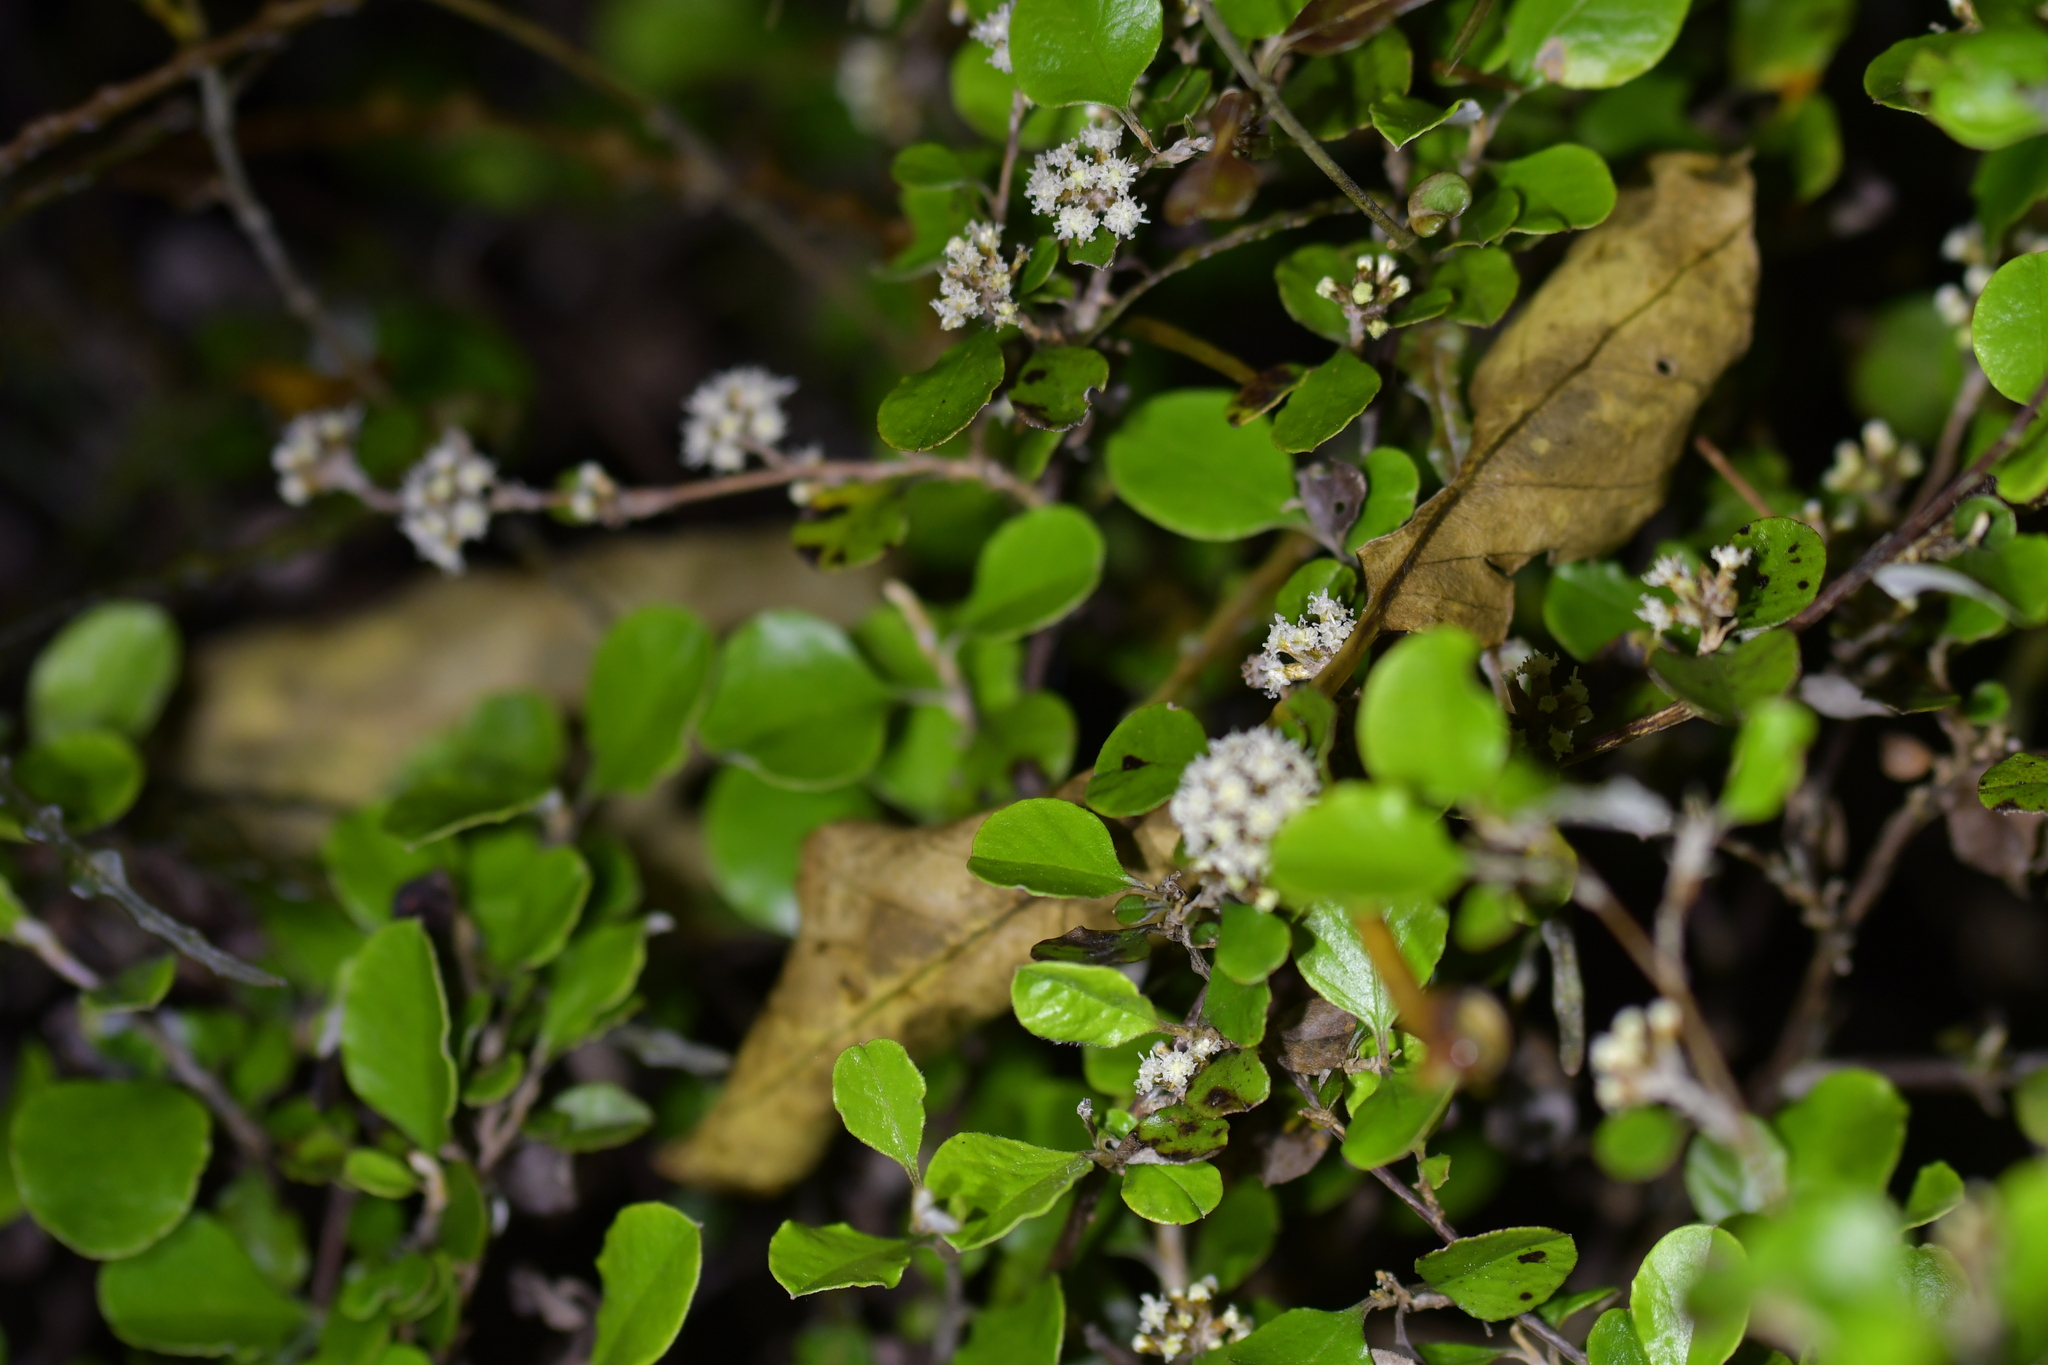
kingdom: Plantae
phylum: Tracheophyta
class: Magnoliopsida
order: Asterales
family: Asteraceae
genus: Ozothamnus
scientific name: Ozothamnus glomeratus
